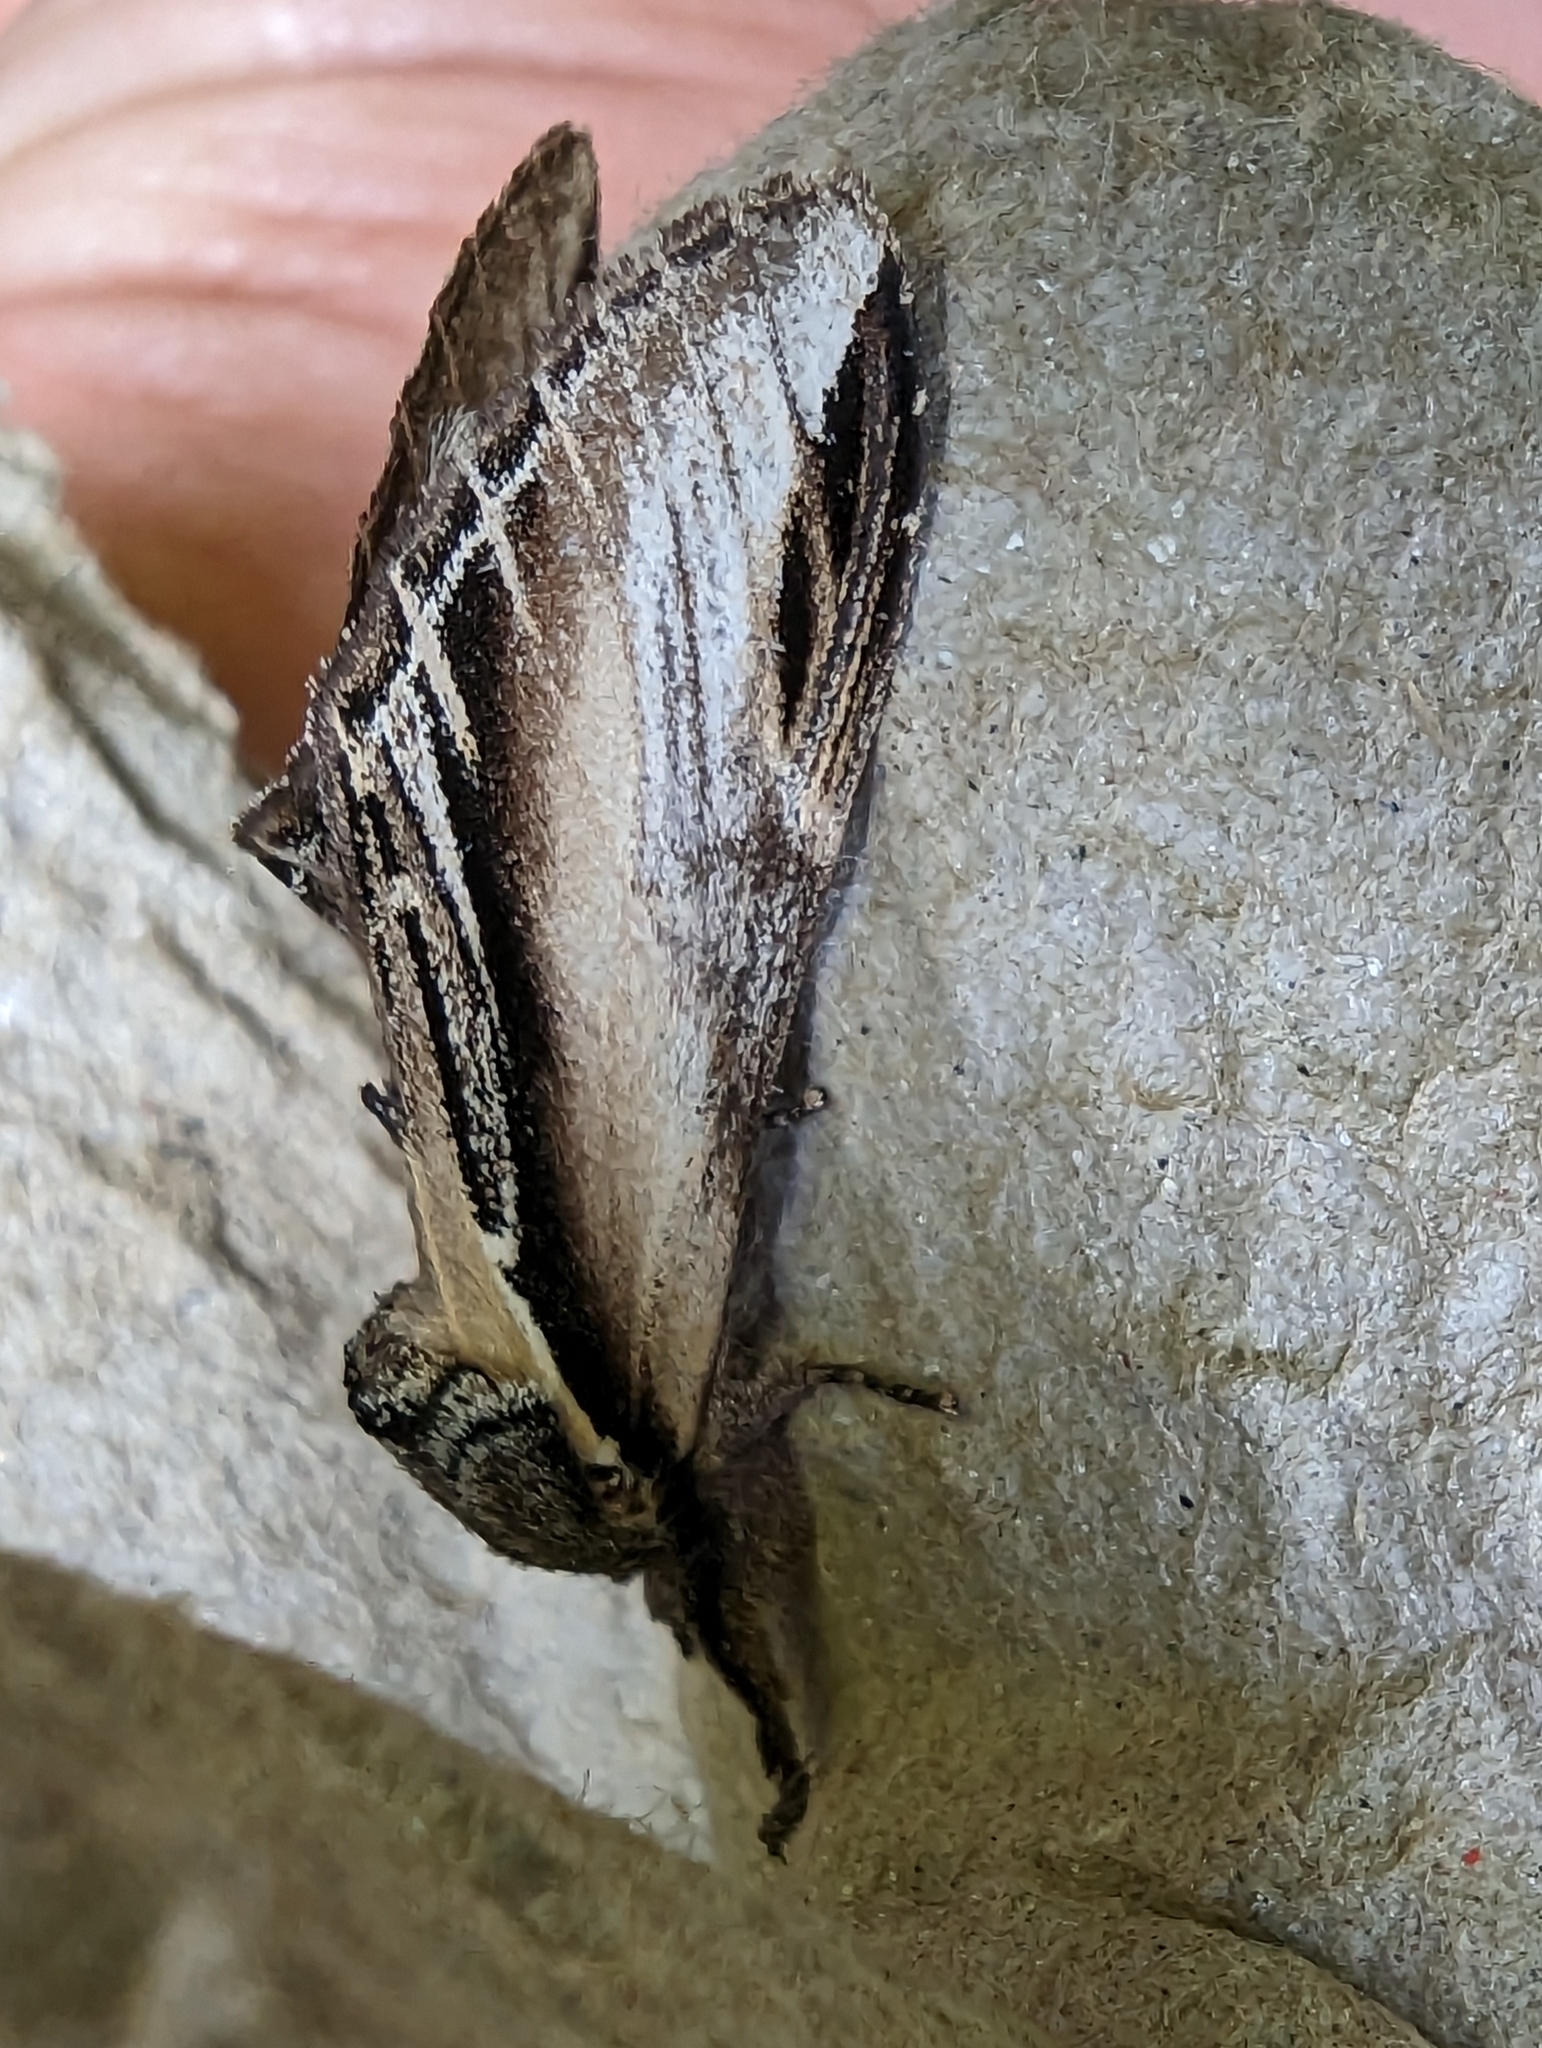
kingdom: Animalia
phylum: Arthropoda
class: Insecta
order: Lepidoptera
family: Notodontidae
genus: Pheosia
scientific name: Pheosia tremula
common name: Swallow prominent
